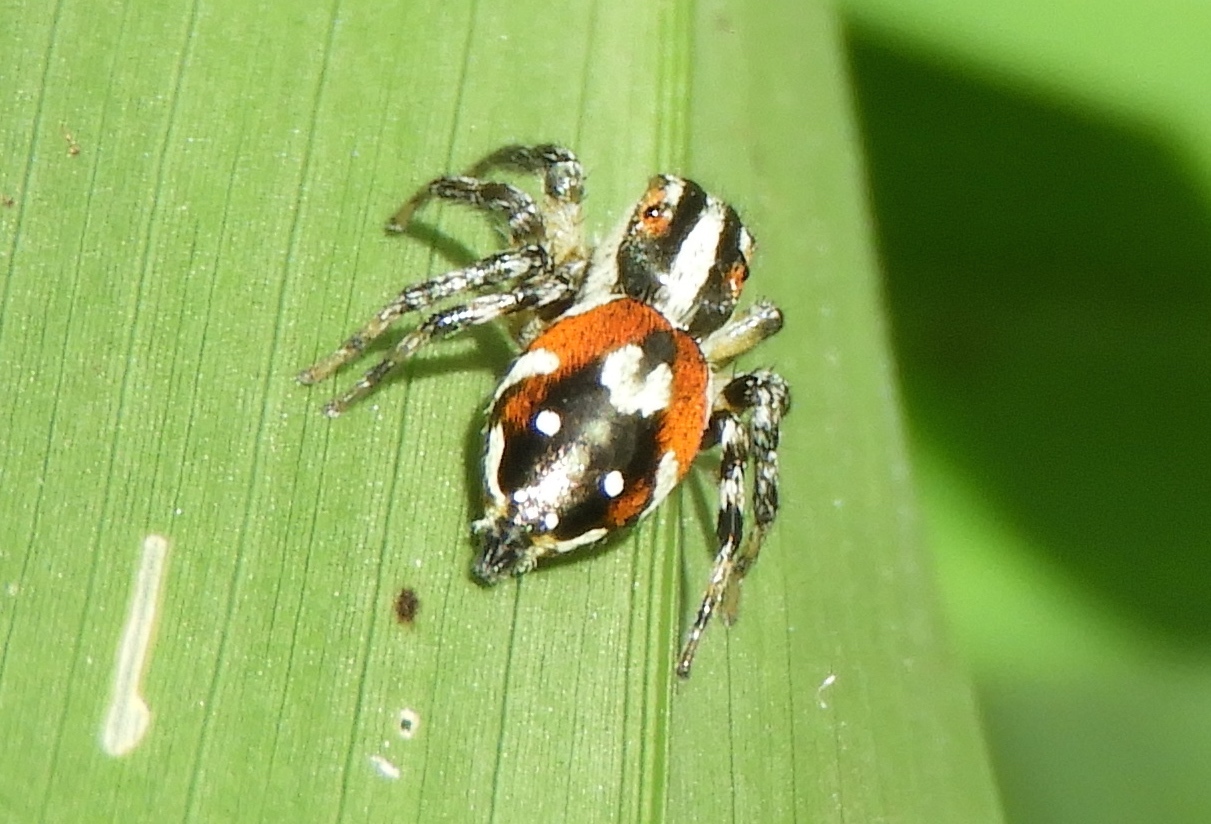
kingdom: Animalia
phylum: Arthropoda
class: Arachnida
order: Araneae
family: Salticidae
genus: Nycerella
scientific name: Nycerella delecta
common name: Jumping spiders
